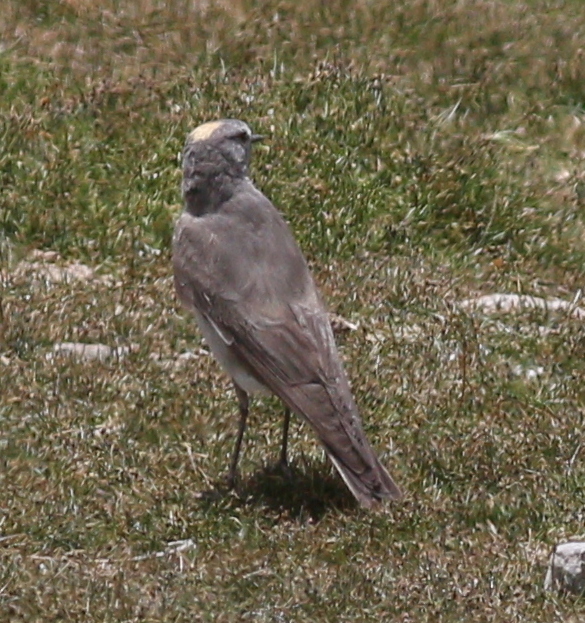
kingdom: Animalia
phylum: Chordata
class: Aves
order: Passeriformes
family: Tyrannidae
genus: Muscisaxicola
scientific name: Muscisaxicola flavinucha
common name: Ochre-naped ground tyrant
